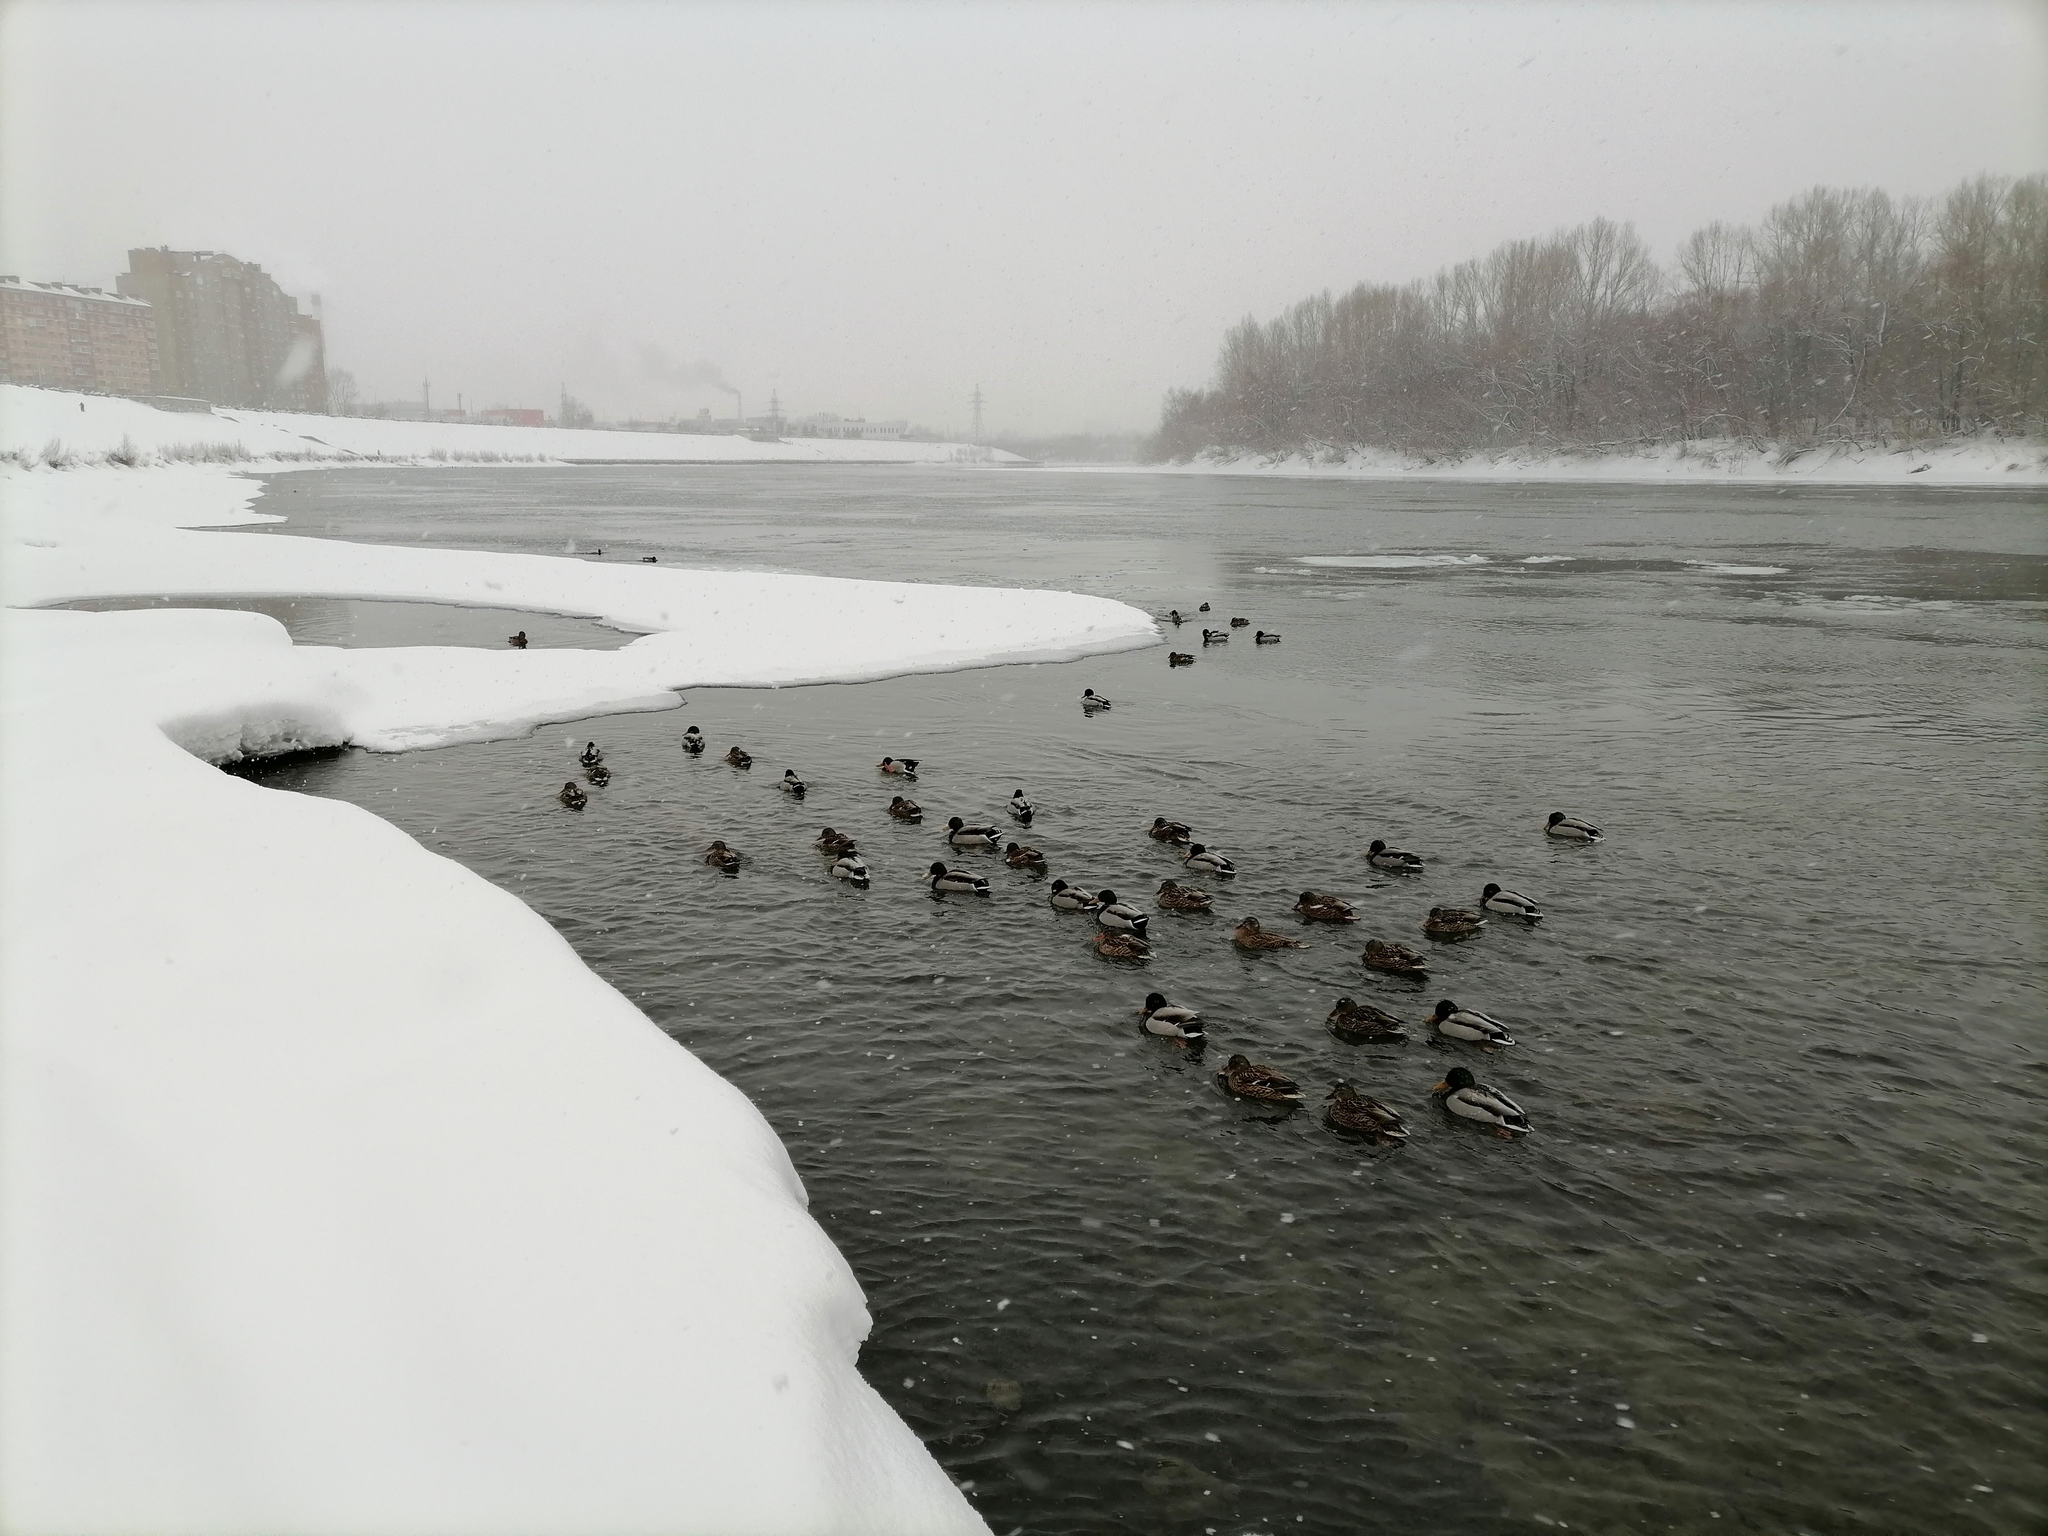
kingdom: Animalia
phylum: Chordata
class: Aves
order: Anseriformes
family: Anatidae
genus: Anas
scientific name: Anas platyrhynchos
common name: Mallard
